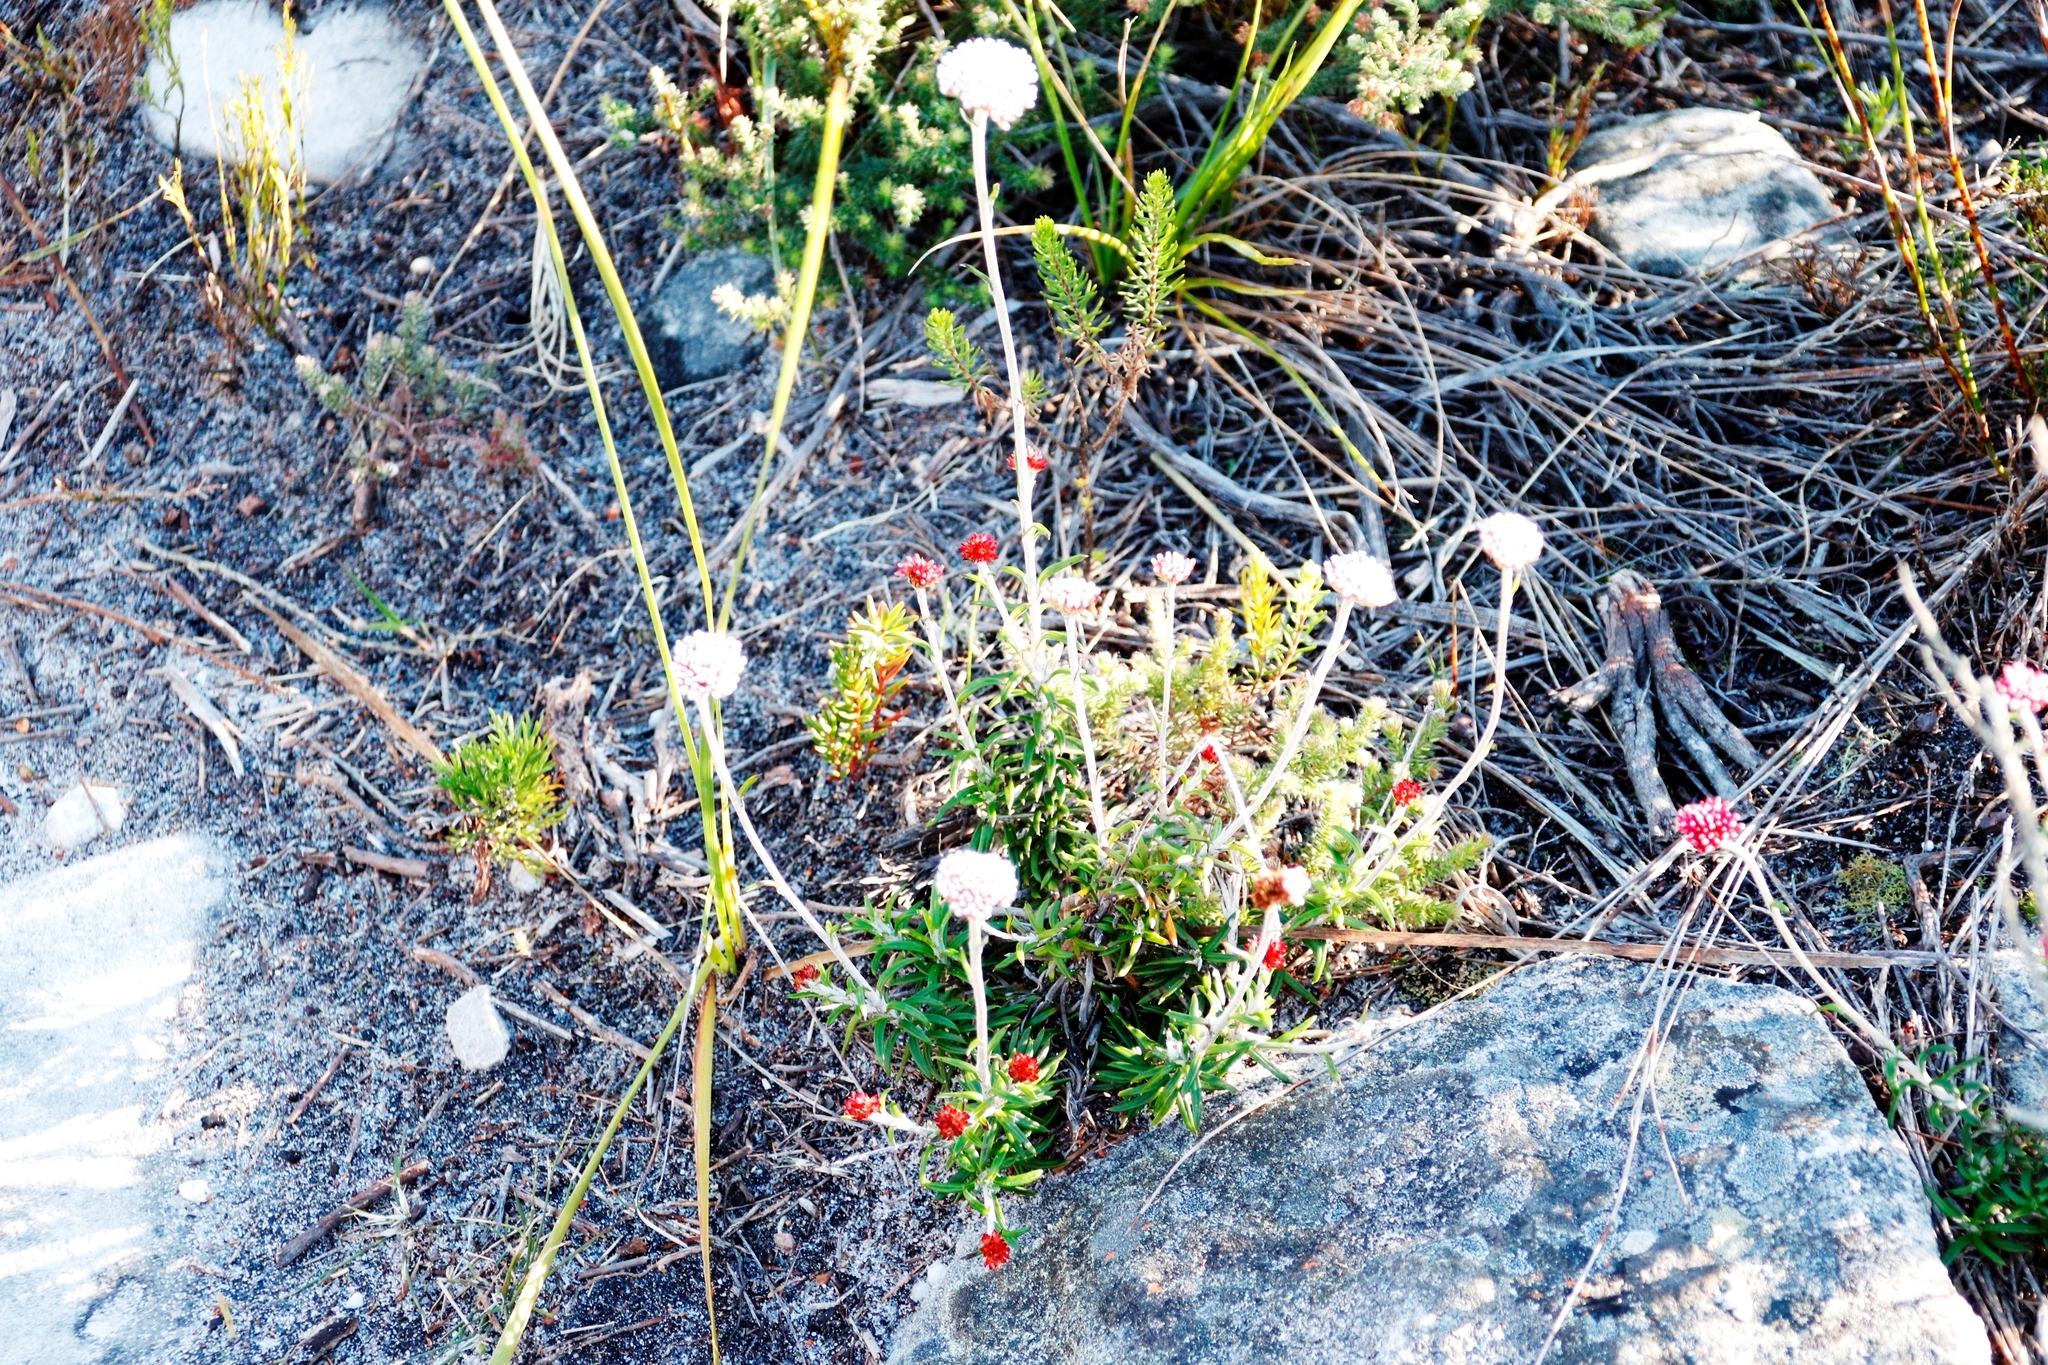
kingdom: Plantae
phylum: Tracheophyta
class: Magnoliopsida
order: Asterales
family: Asteraceae
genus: Anaxeton
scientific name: Anaxeton arborescens
